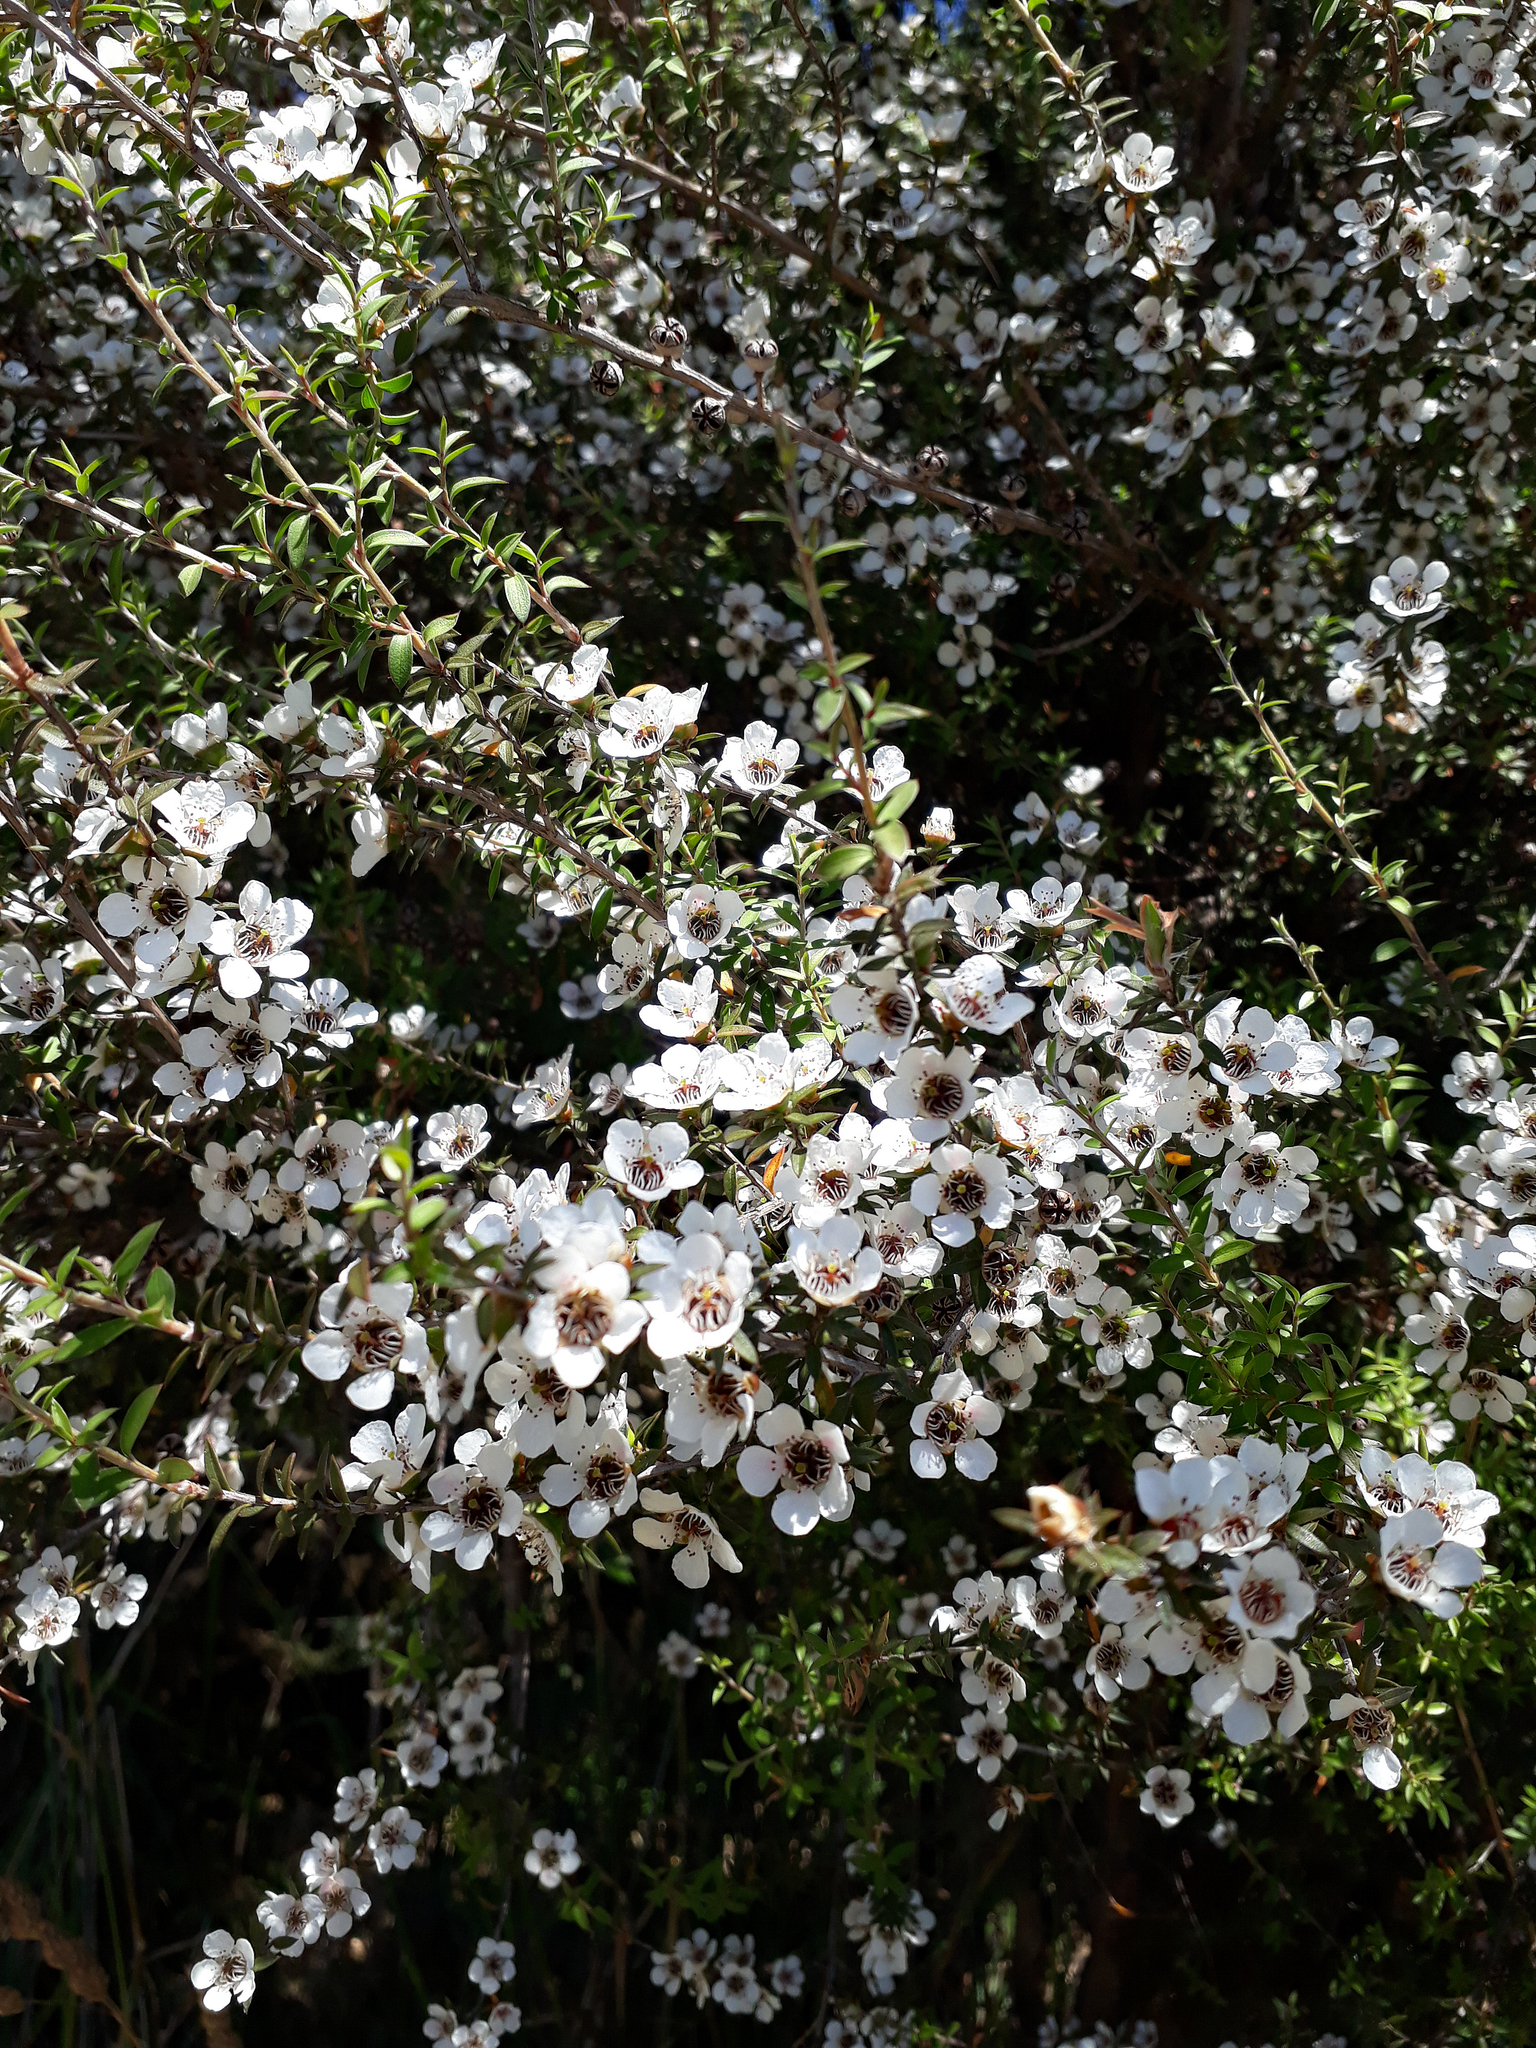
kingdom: Plantae
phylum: Tracheophyta
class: Magnoliopsida
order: Myrtales
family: Myrtaceae
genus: Leptospermum
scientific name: Leptospermum scoparium
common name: Broom tea-tree
